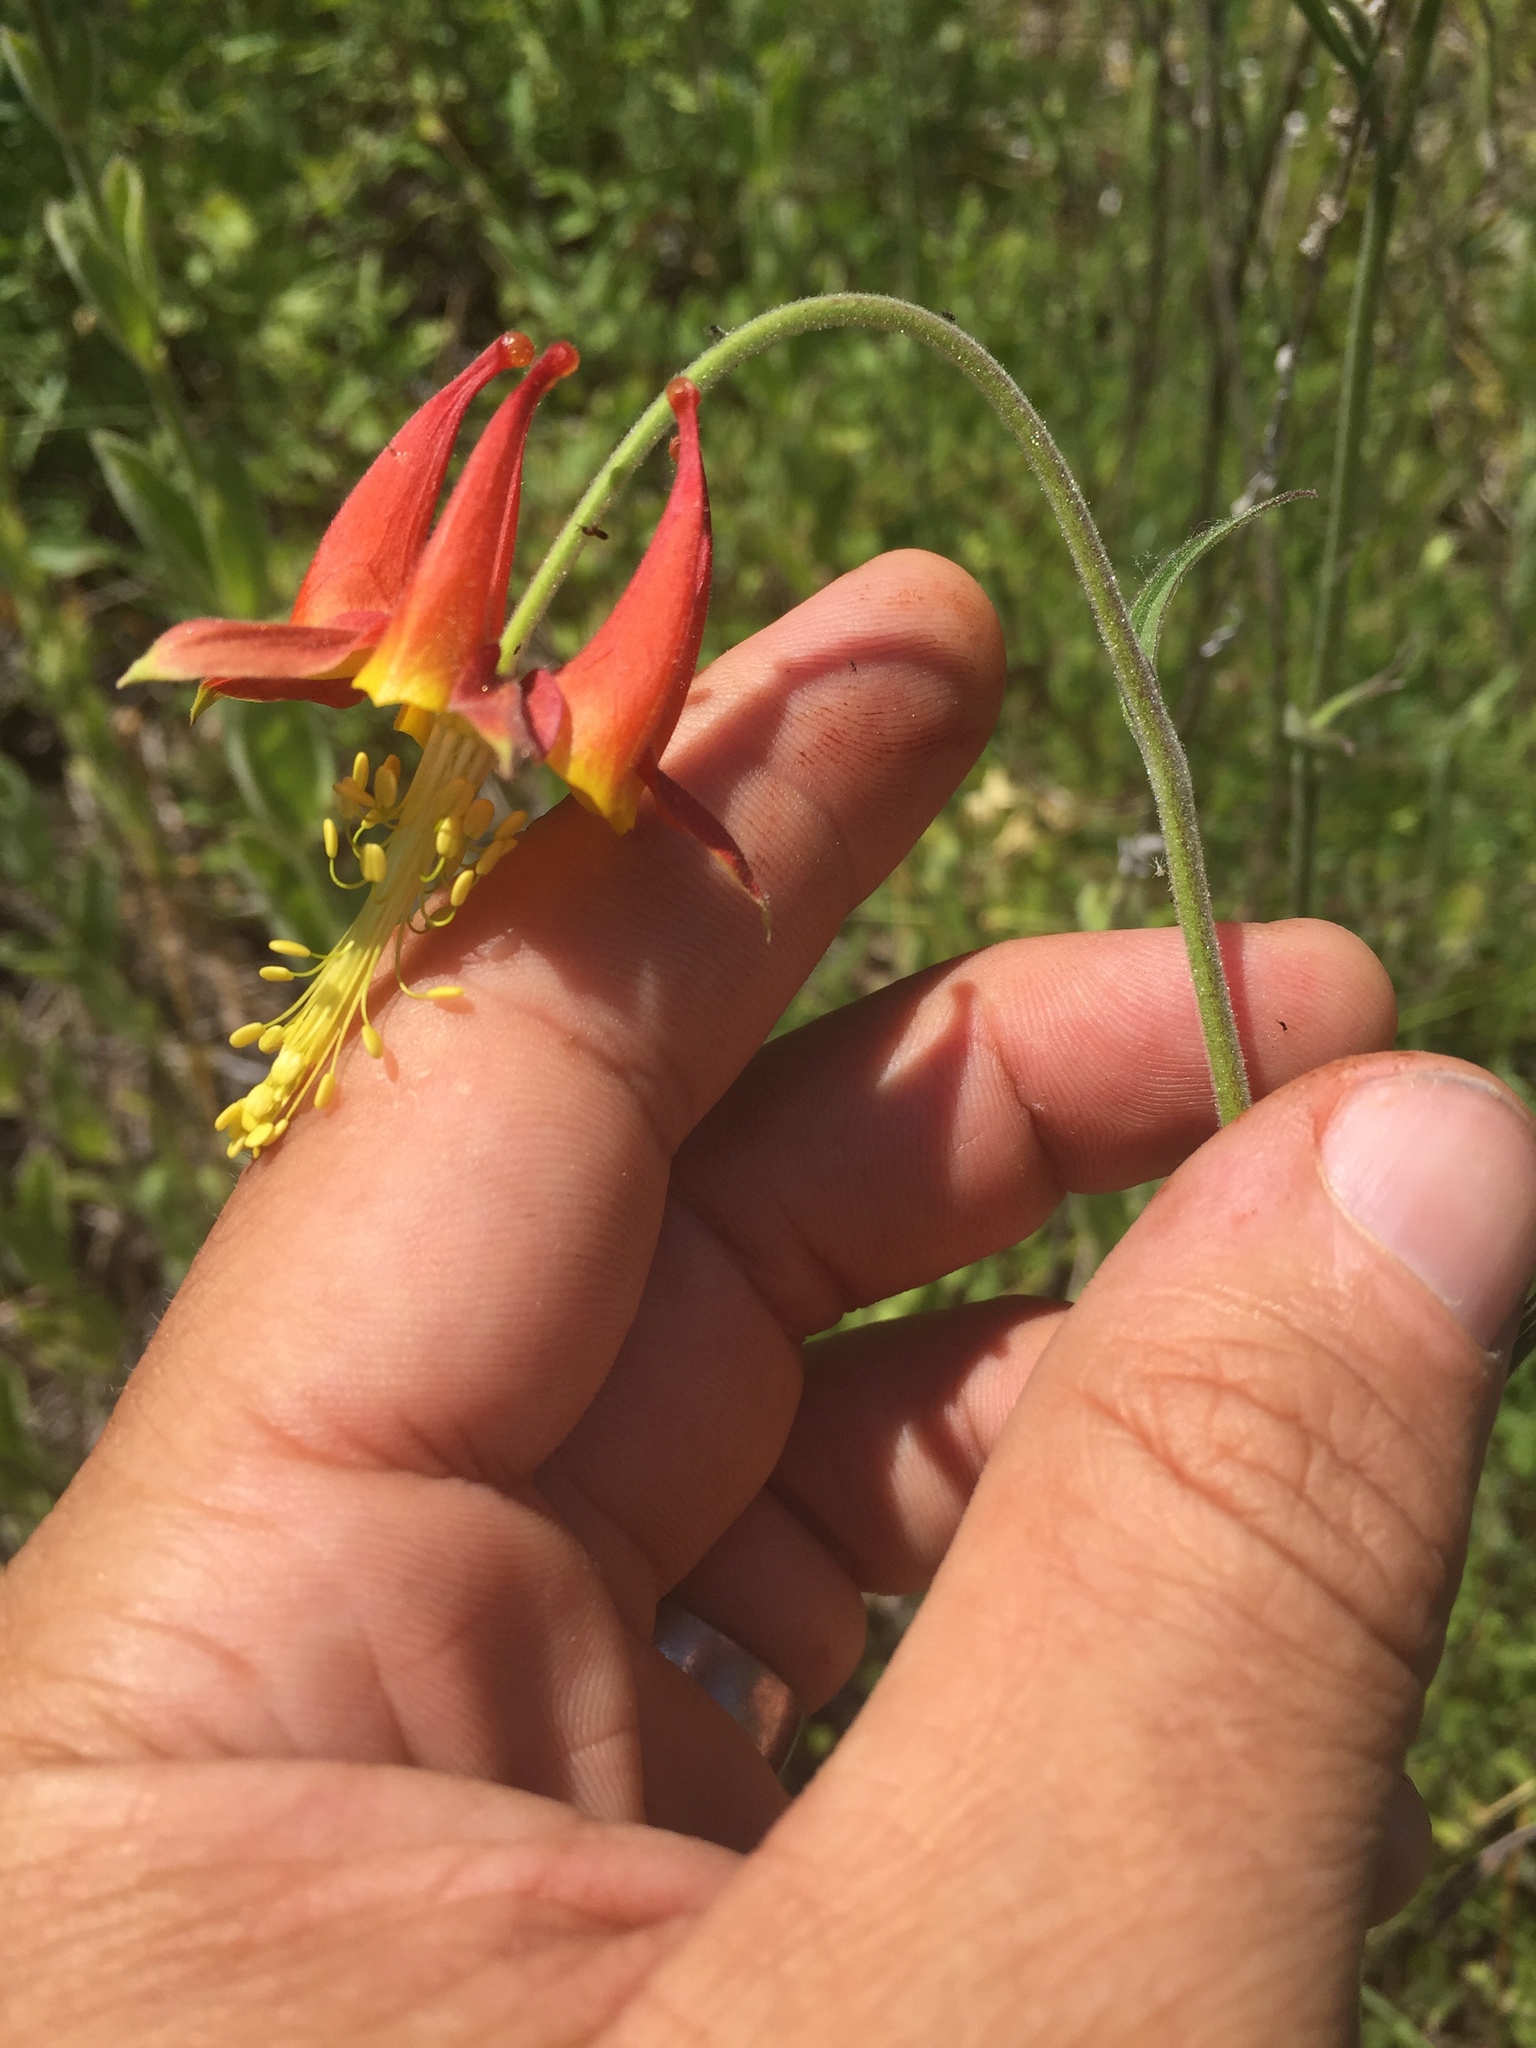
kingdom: Plantae
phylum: Tracheophyta
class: Magnoliopsida
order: Ranunculales
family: Ranunculaceae
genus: Aquilegia
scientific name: Aquilegia eximia
